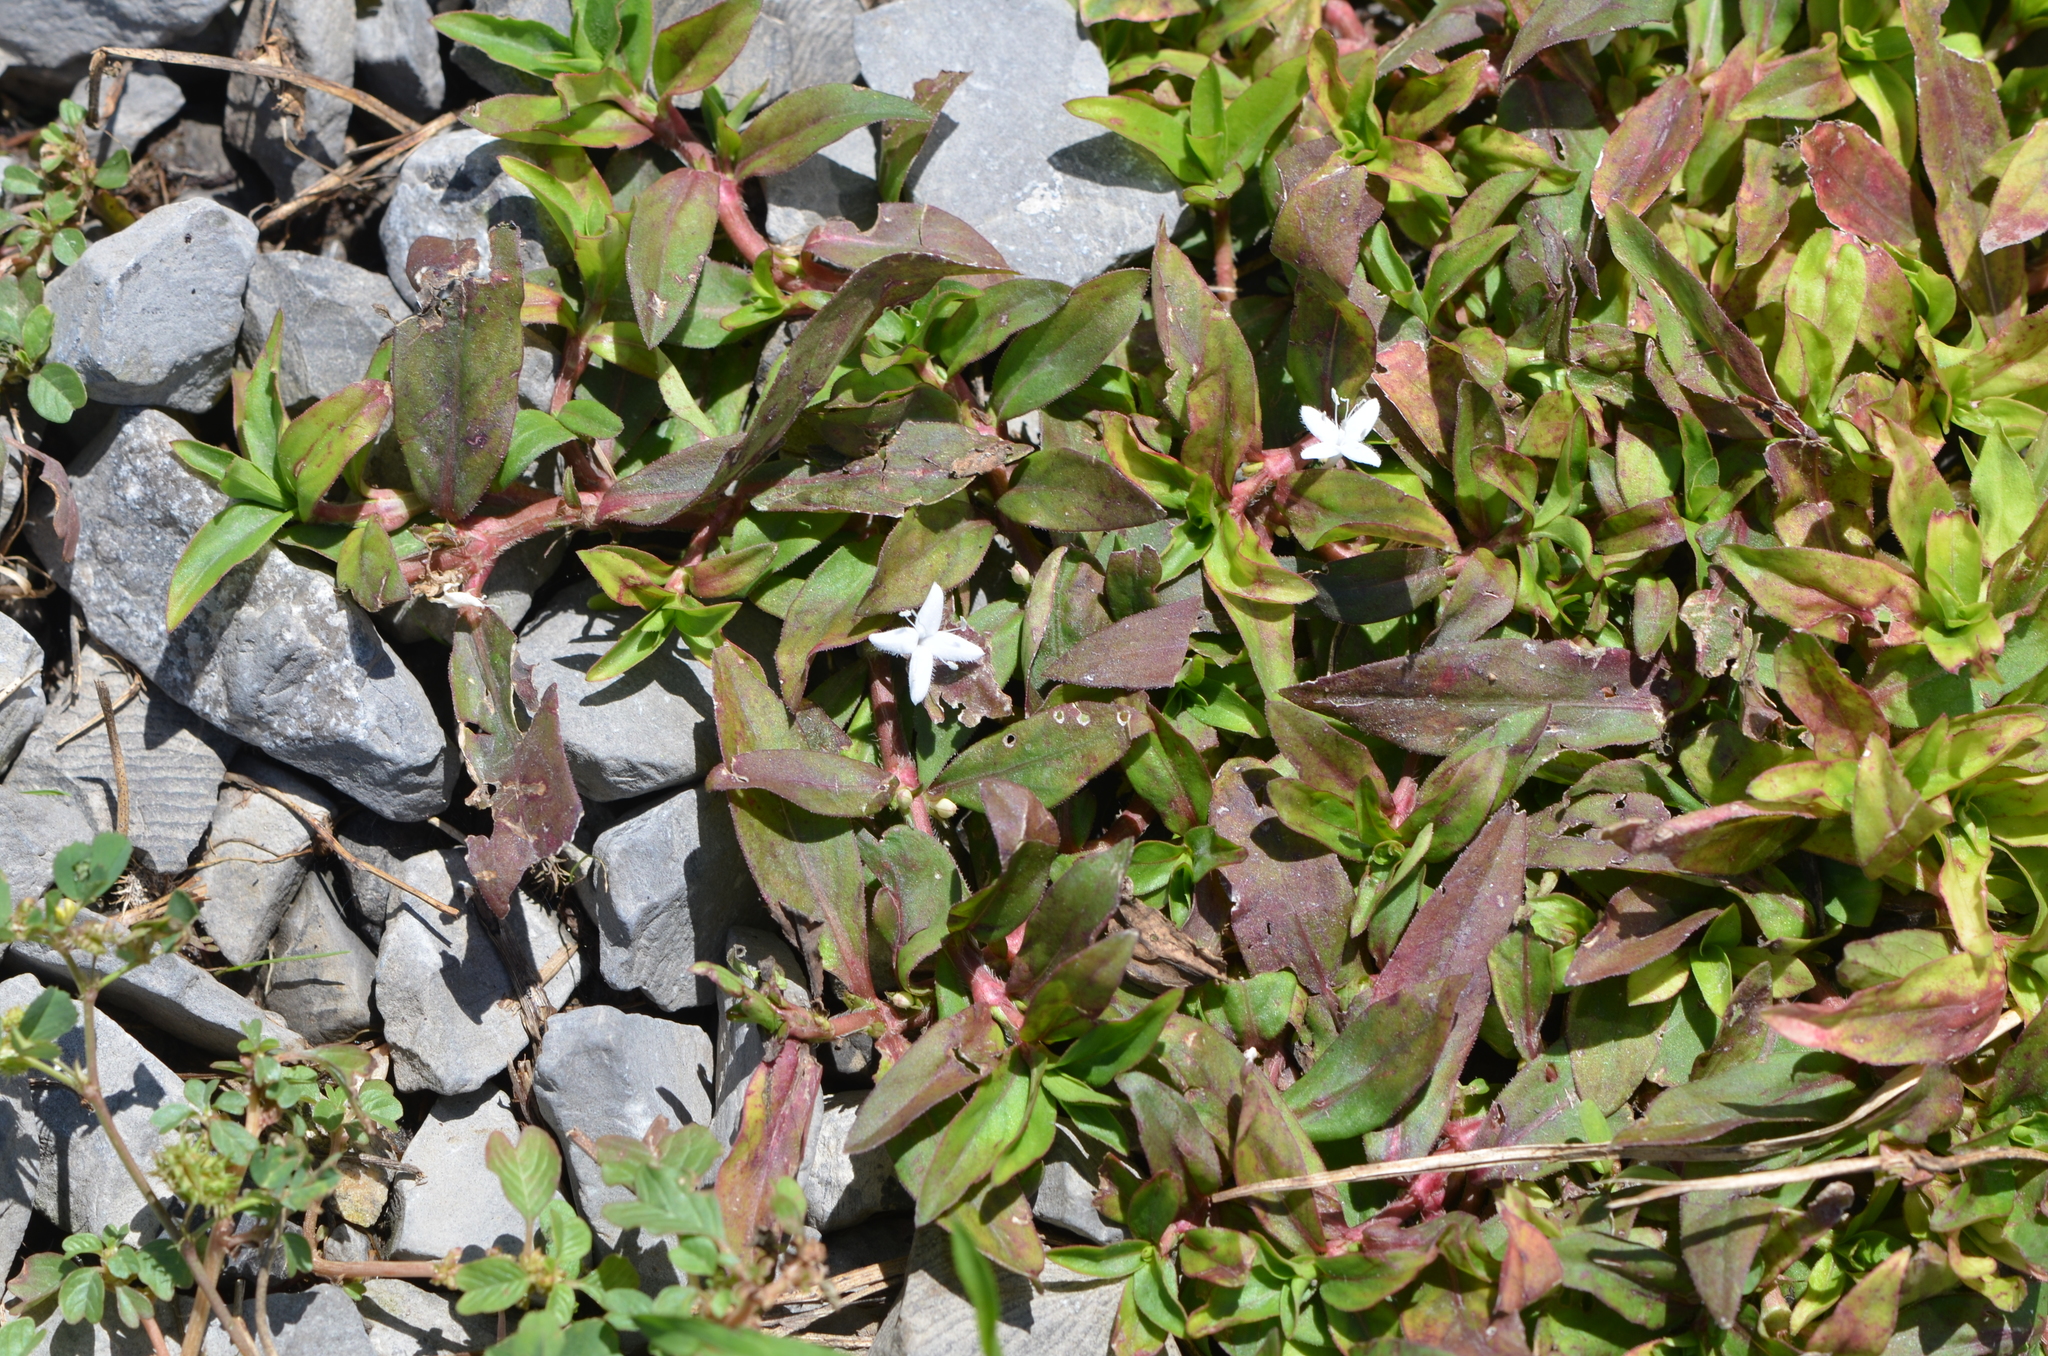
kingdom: Plantae
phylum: Tracheophyta
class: Magnoliopsida
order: Gentianales
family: Rubiaceae
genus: Diodia
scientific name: Diodia virginiana
